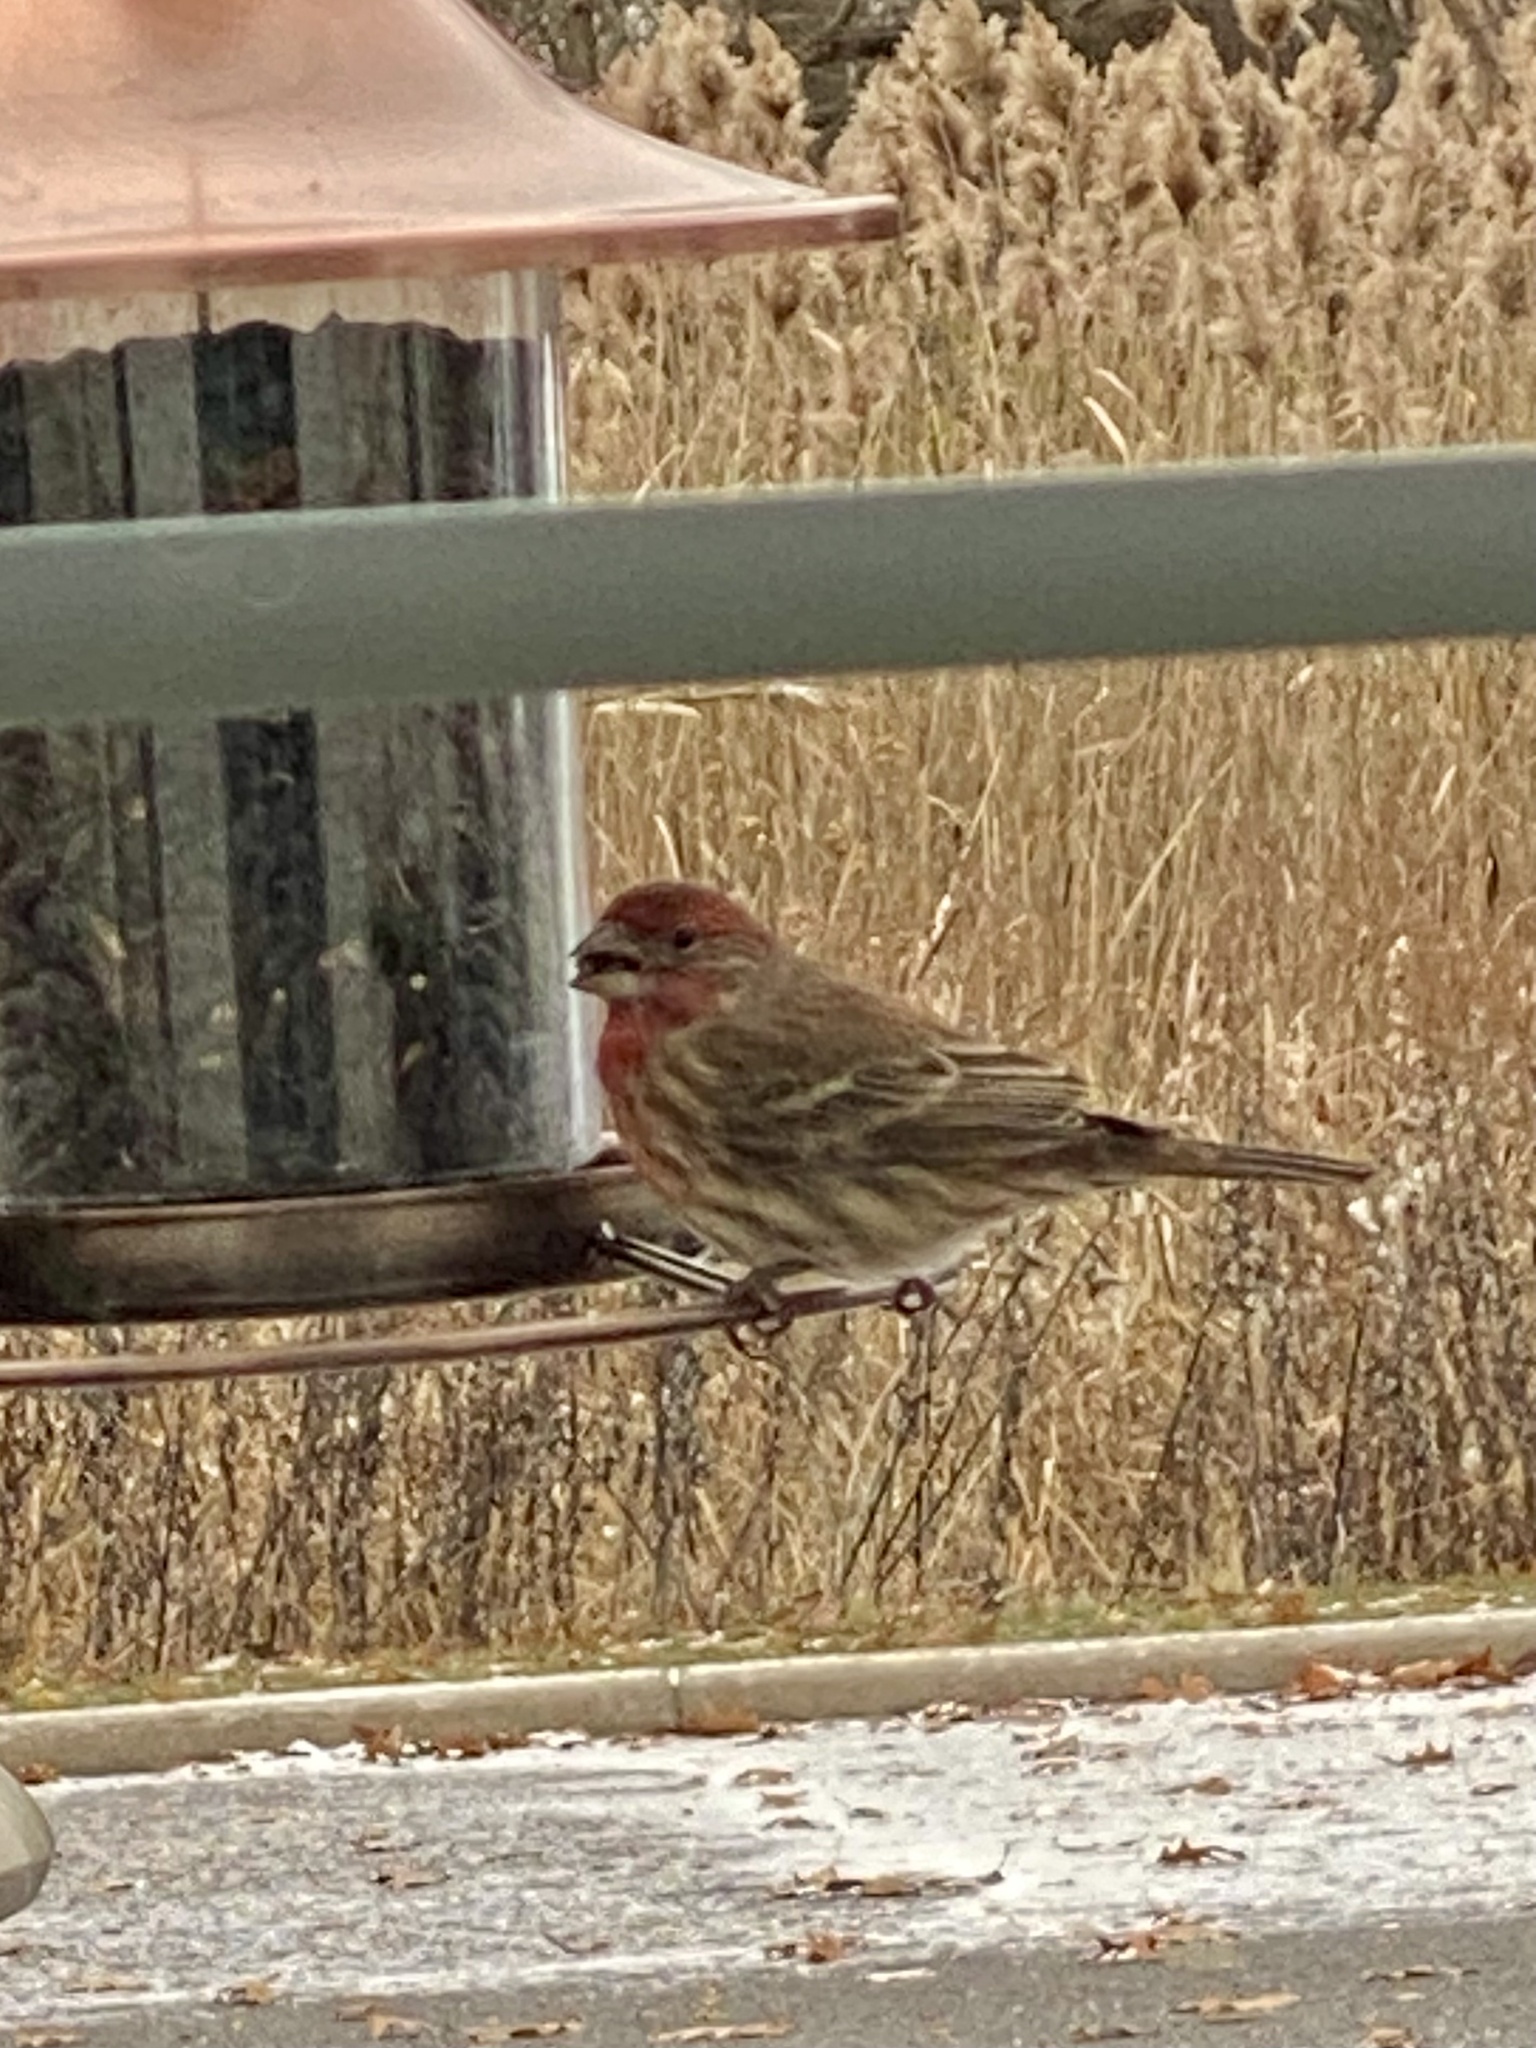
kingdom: Animalia
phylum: Chordata
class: Aves
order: Passeriformes
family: Fringillidae
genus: Haemorhous
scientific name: Haemorhous mexicanus
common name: House finch
